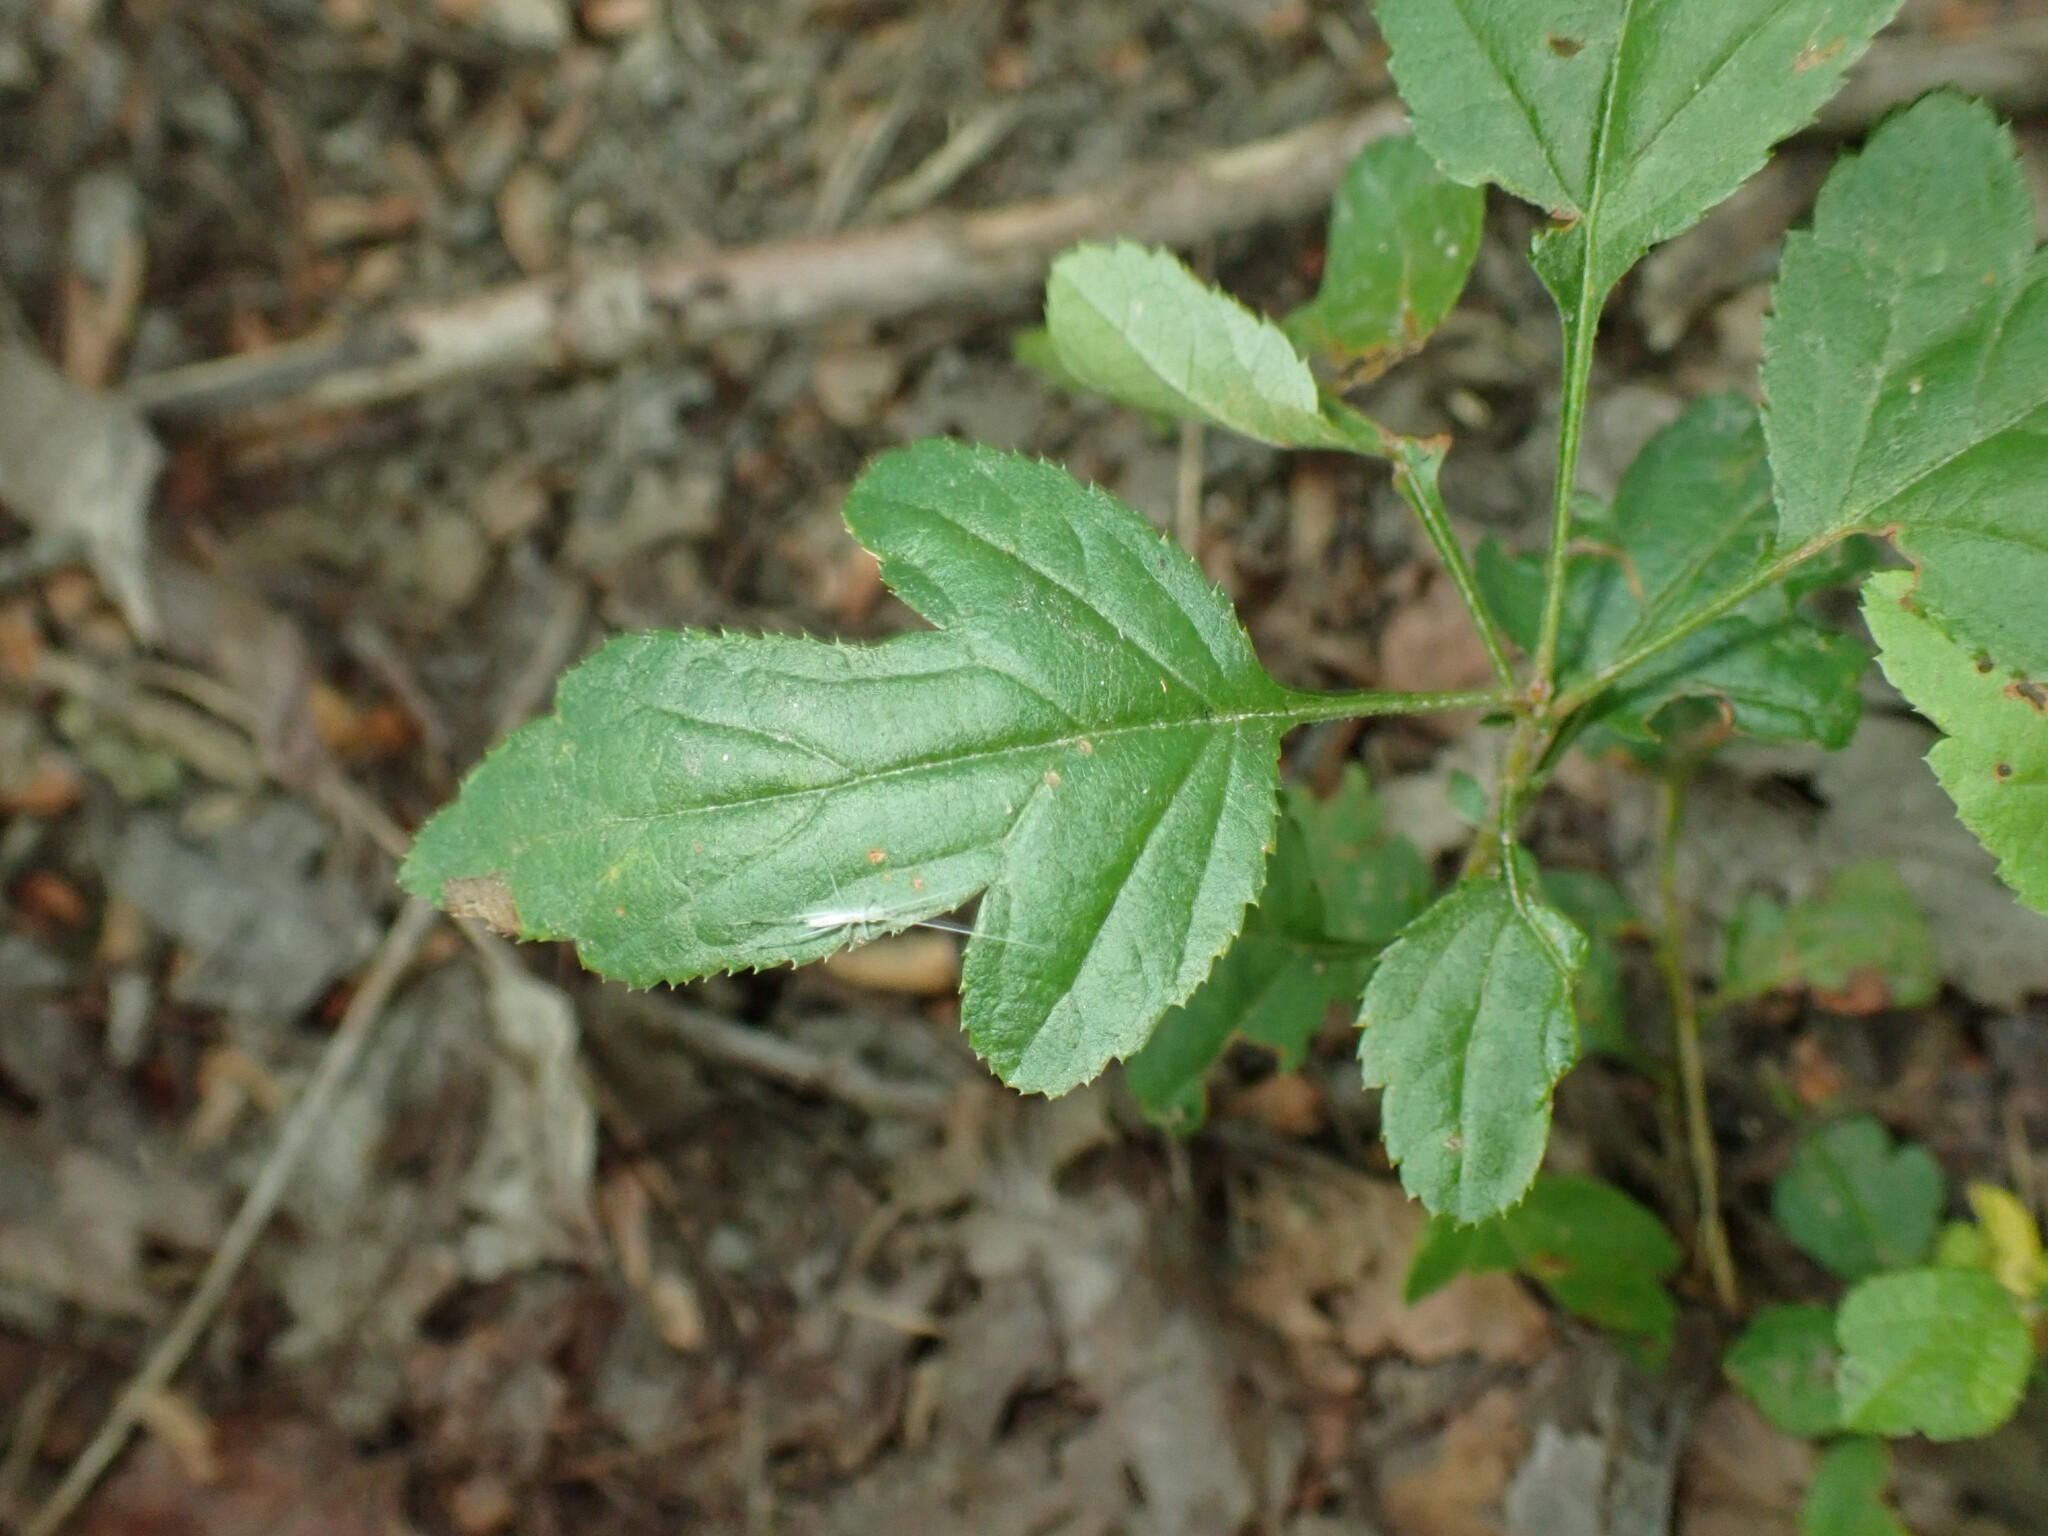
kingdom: Plantae
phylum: Tracheophyta
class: Magnoliopsida
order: Rosales
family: Rosaceae
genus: Malus
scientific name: Malus toringo
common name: Japanese crabapple
